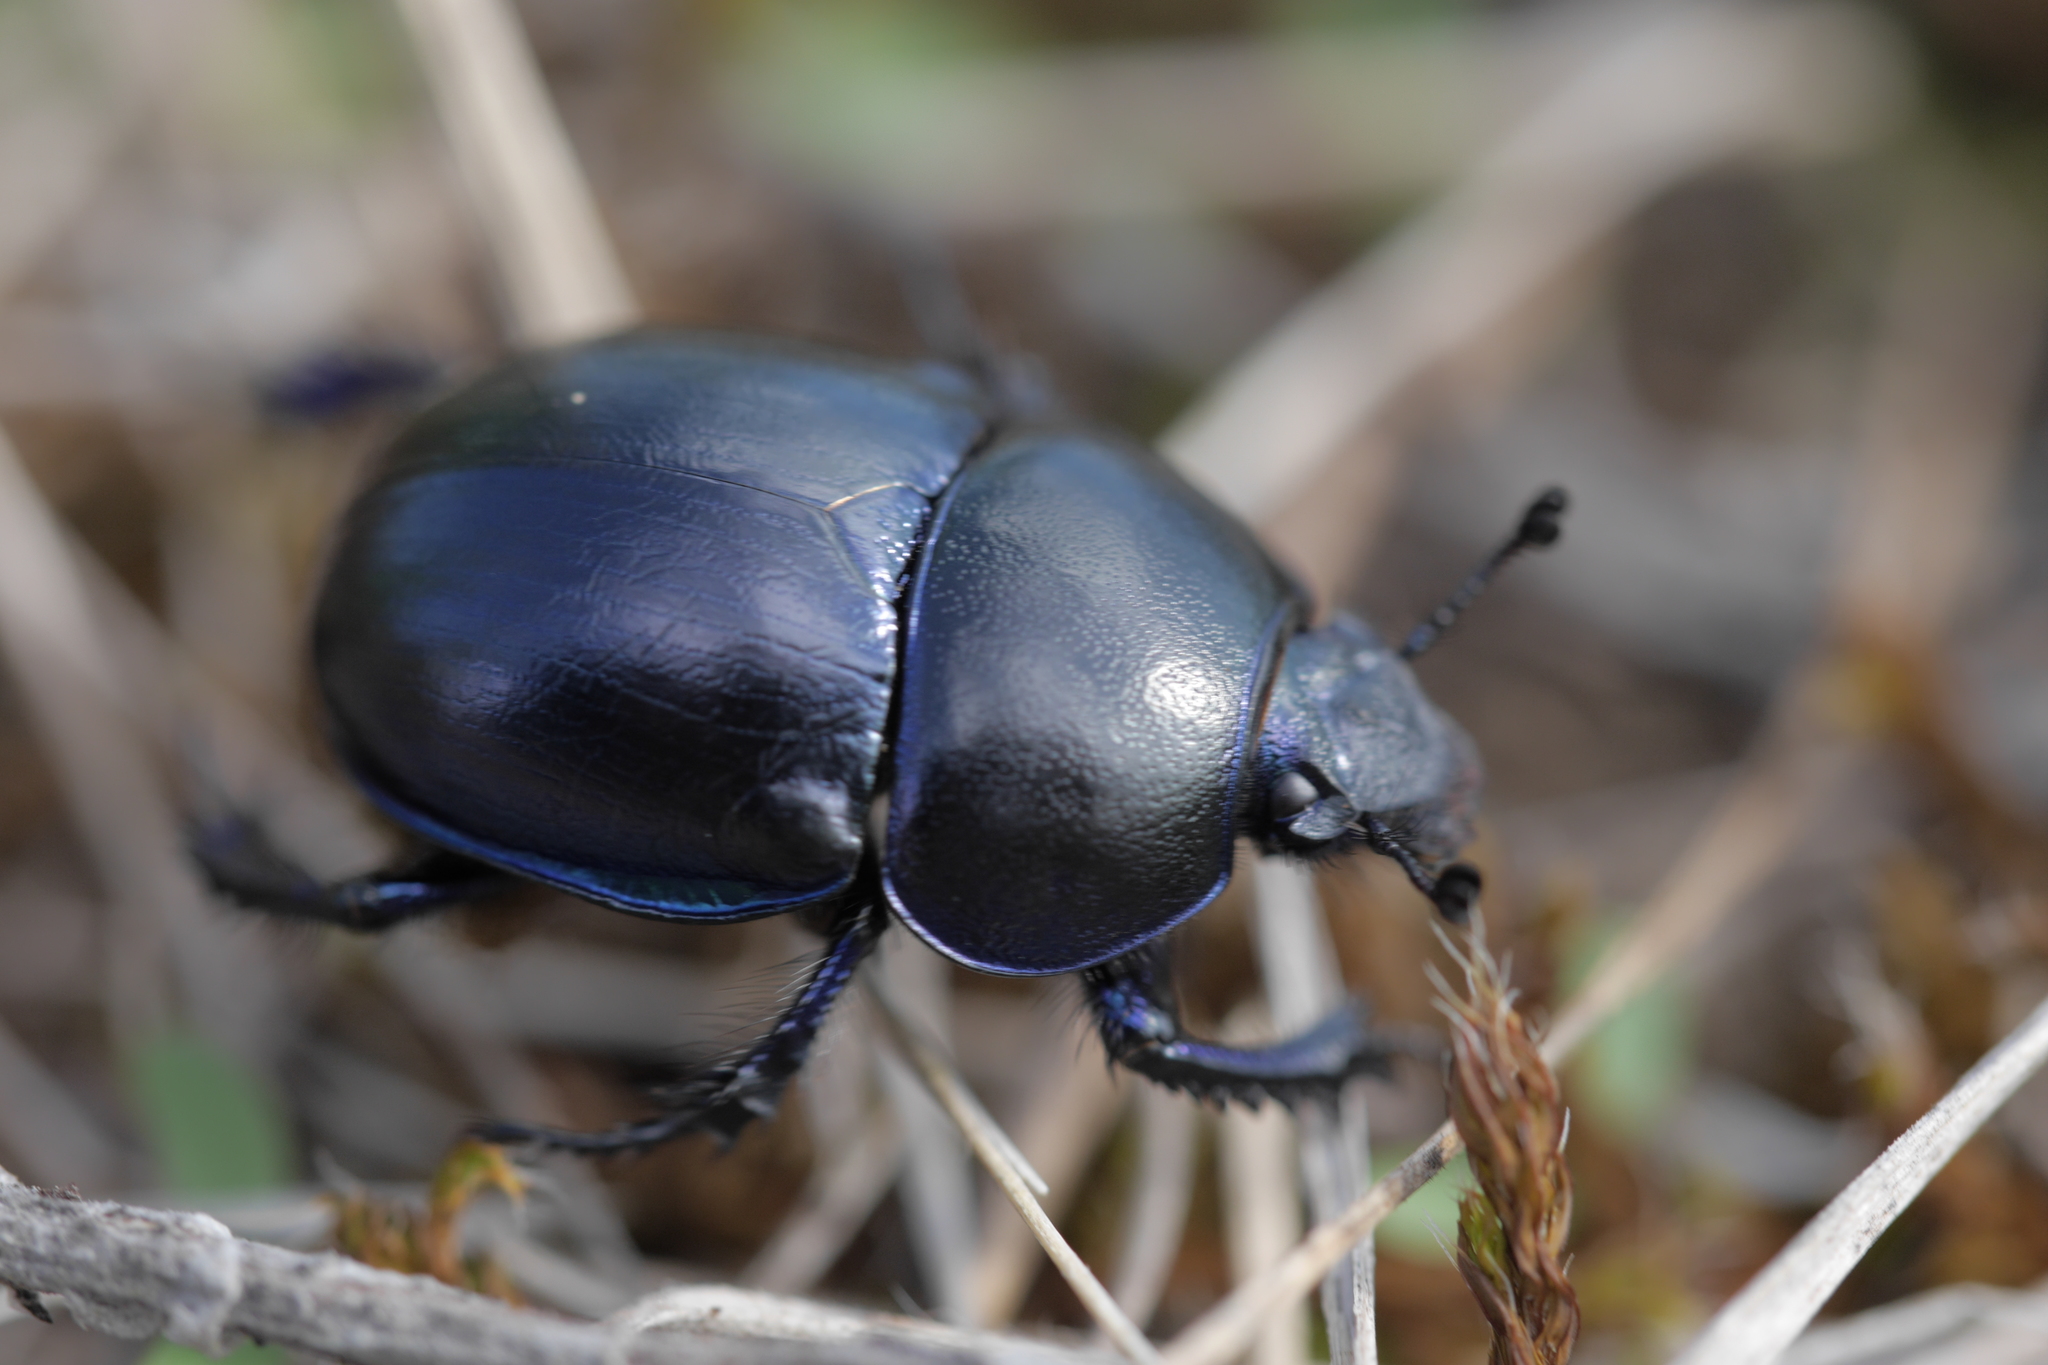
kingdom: Animalia
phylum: Arthropoda
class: Insecta
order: Coleoptera
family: Geotrupidae
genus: Trypocopris
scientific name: Trypocopris vernalis
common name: Spring dumbledor
